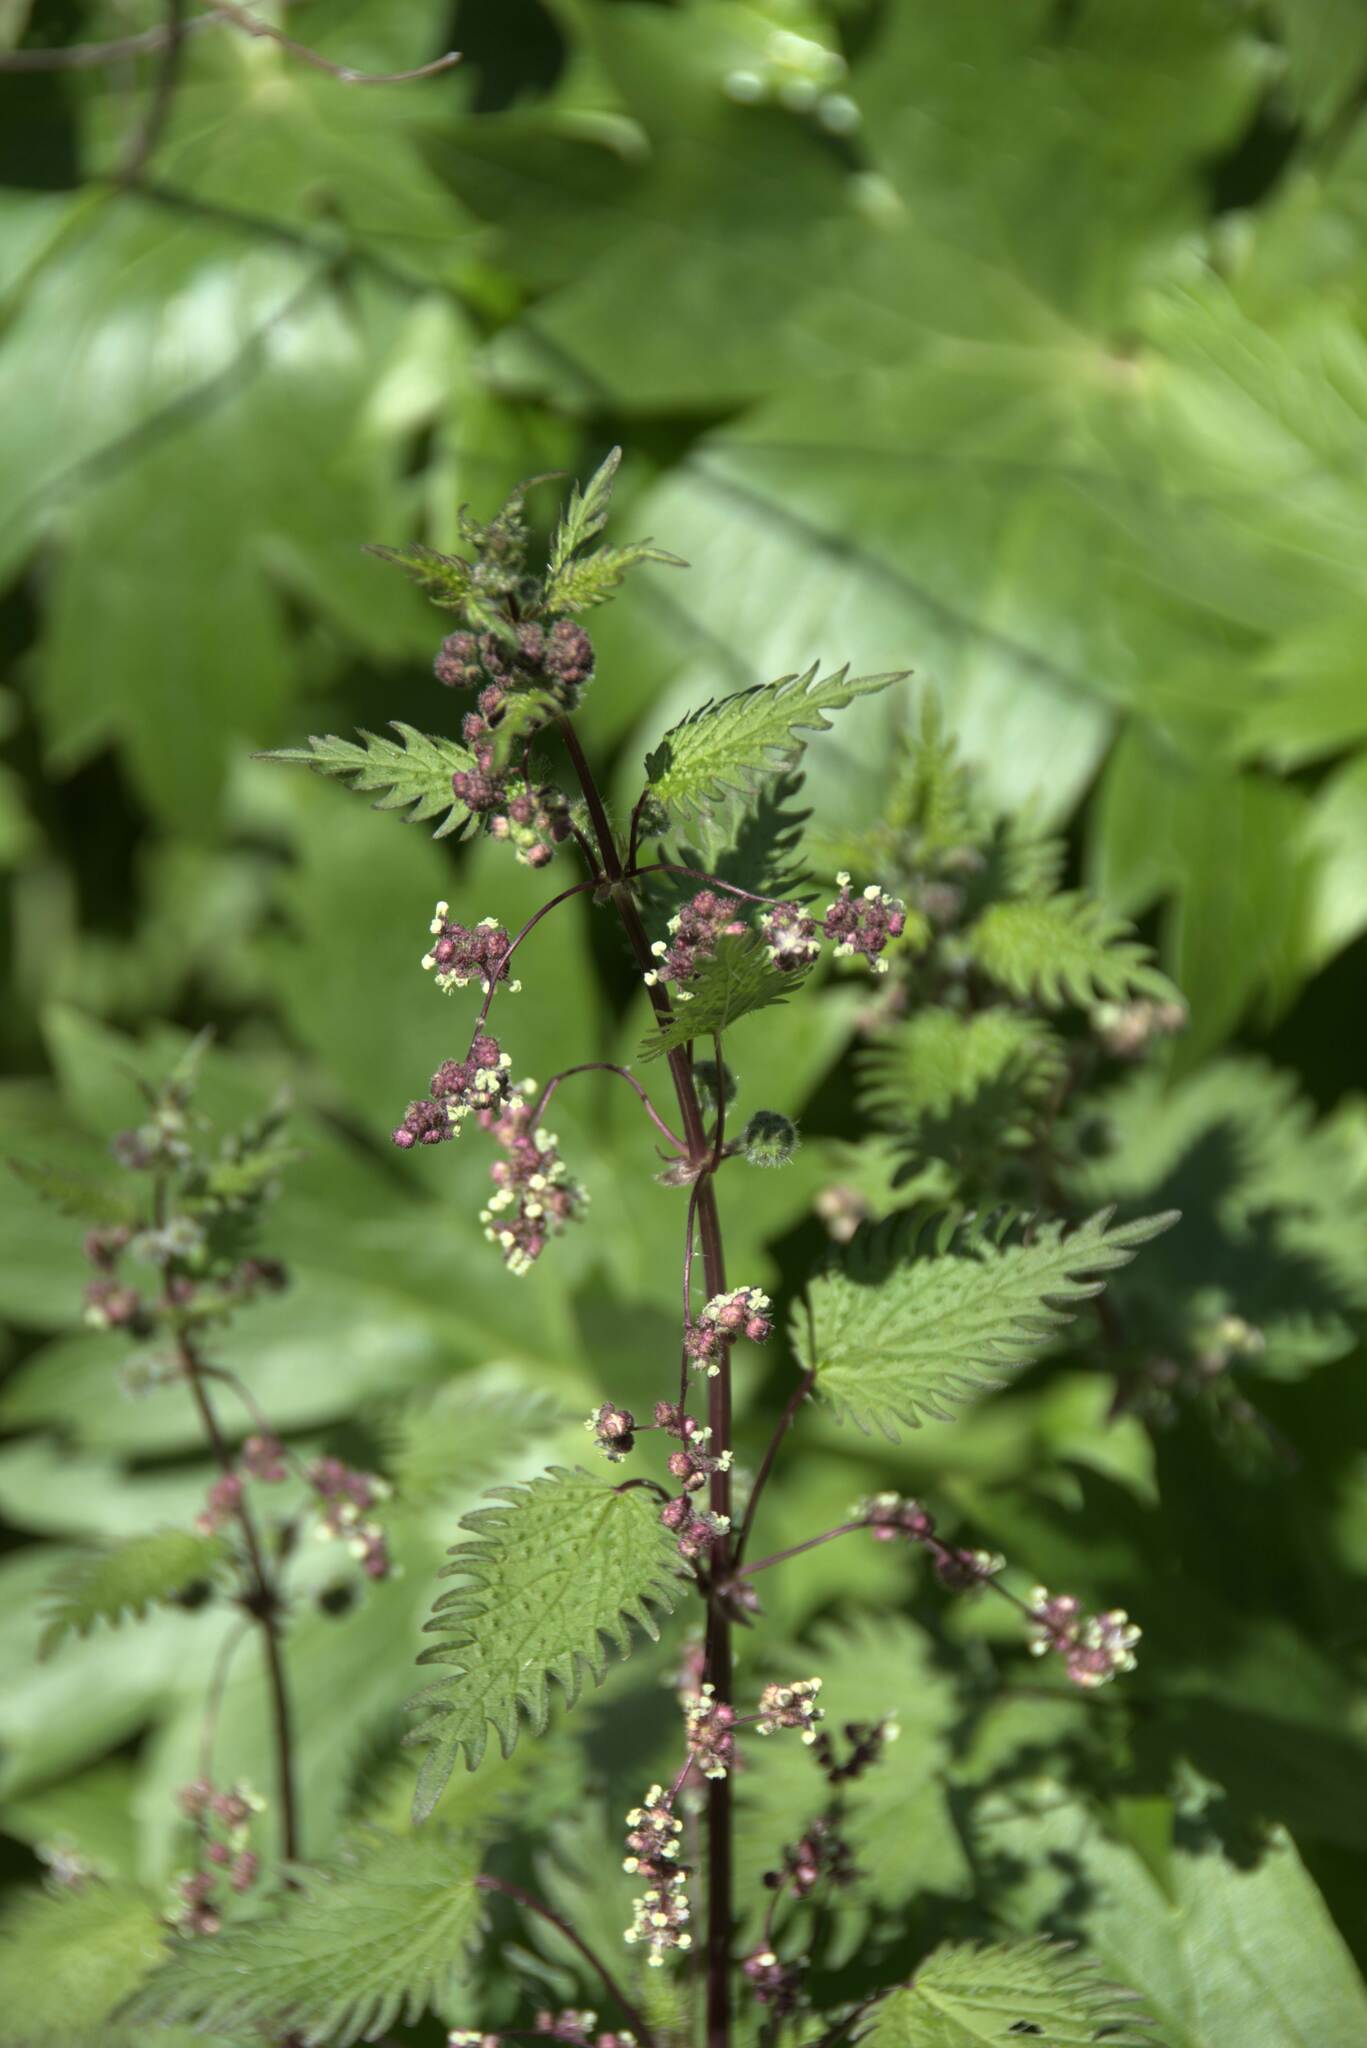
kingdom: Plantae
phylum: Tracheophyta
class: Magnoliopsida
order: Rosales
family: Urticaceae
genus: Urtica
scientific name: Urtica pilulifera
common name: Roman nettle
